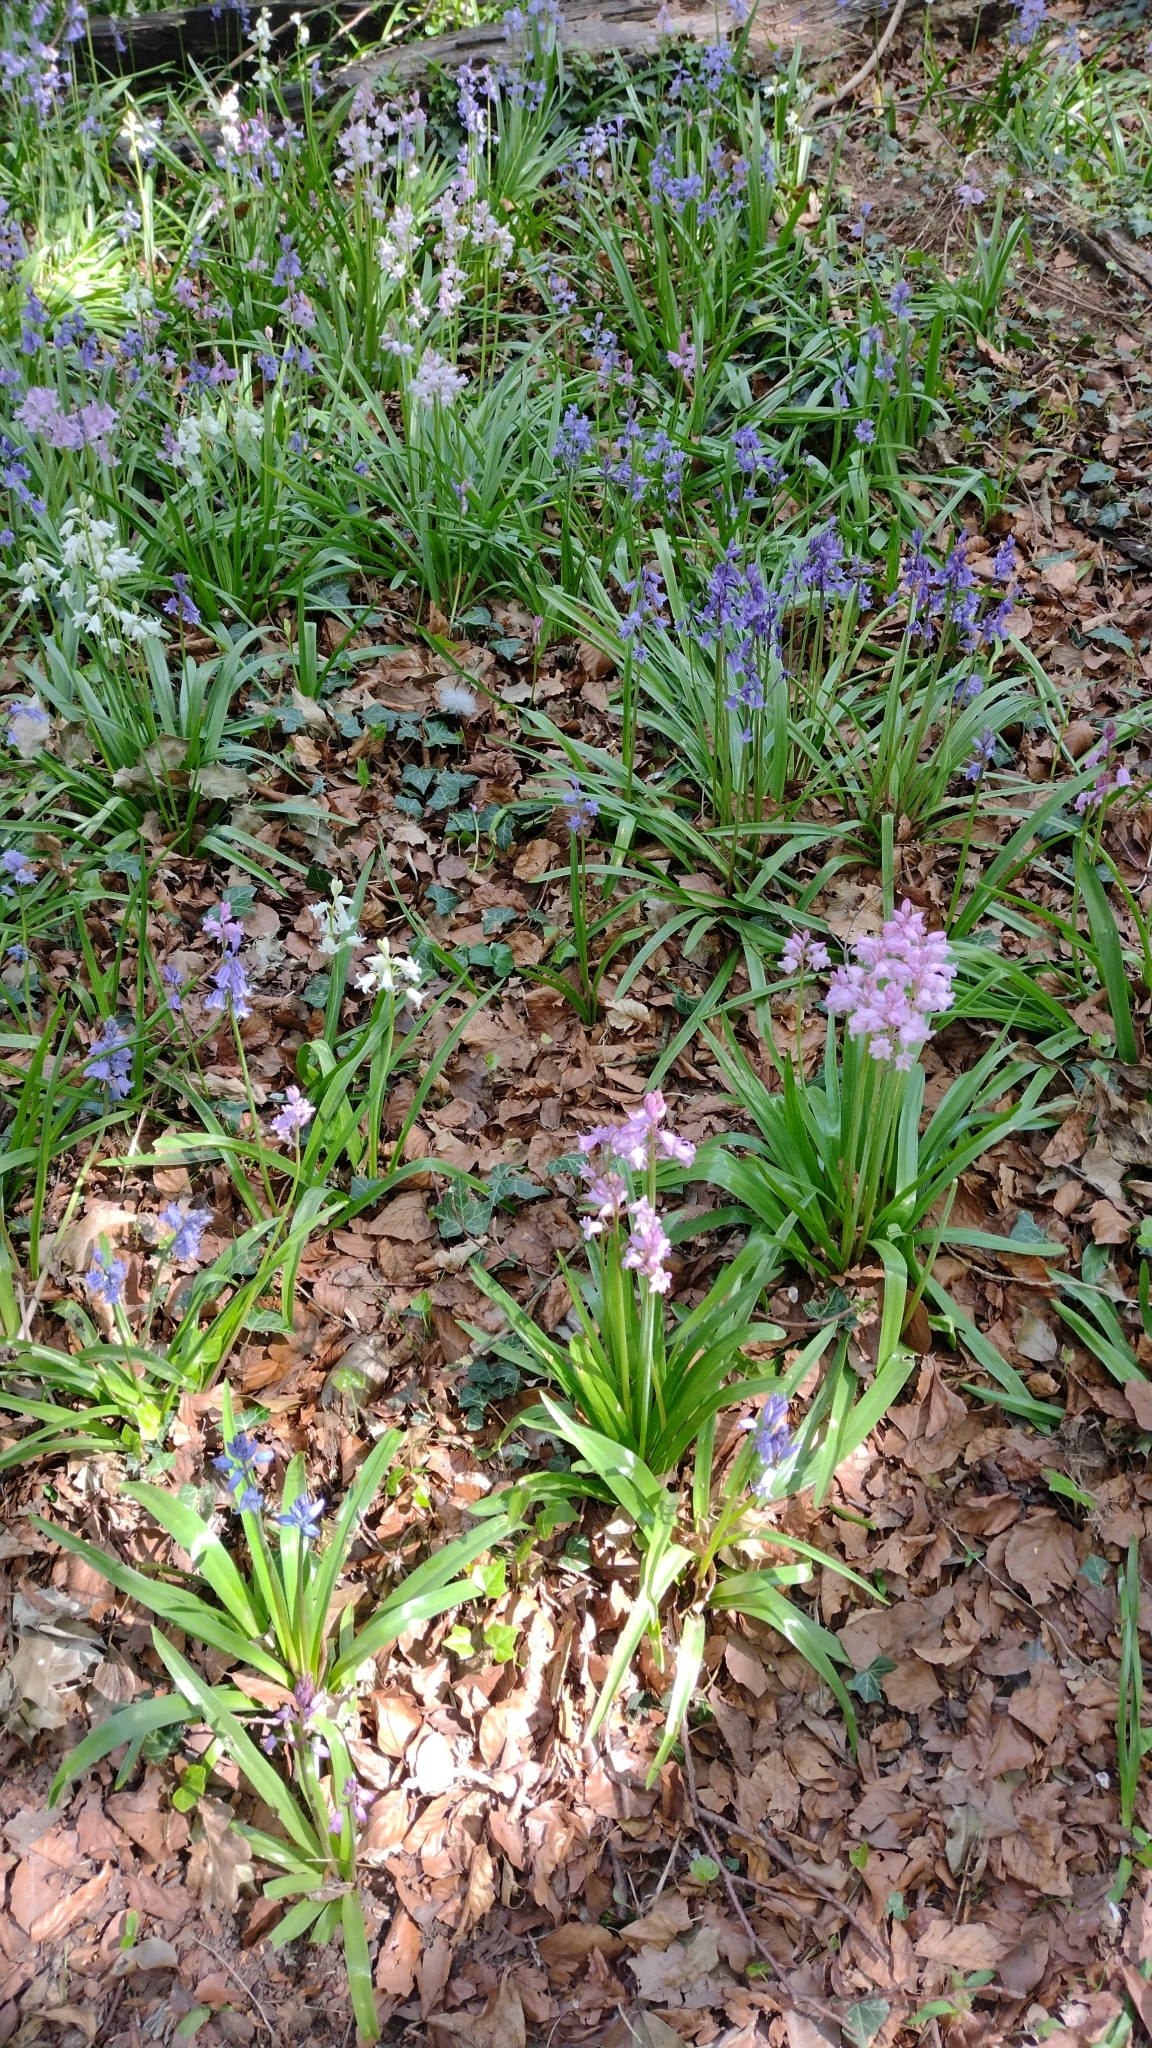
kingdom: Plantae
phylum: Tracheophyta
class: Liliopsida
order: Asparagales
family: Asparagaceae
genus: Hyacinthoides
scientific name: Hyacinthoides massartiana
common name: Hyacinthoides
